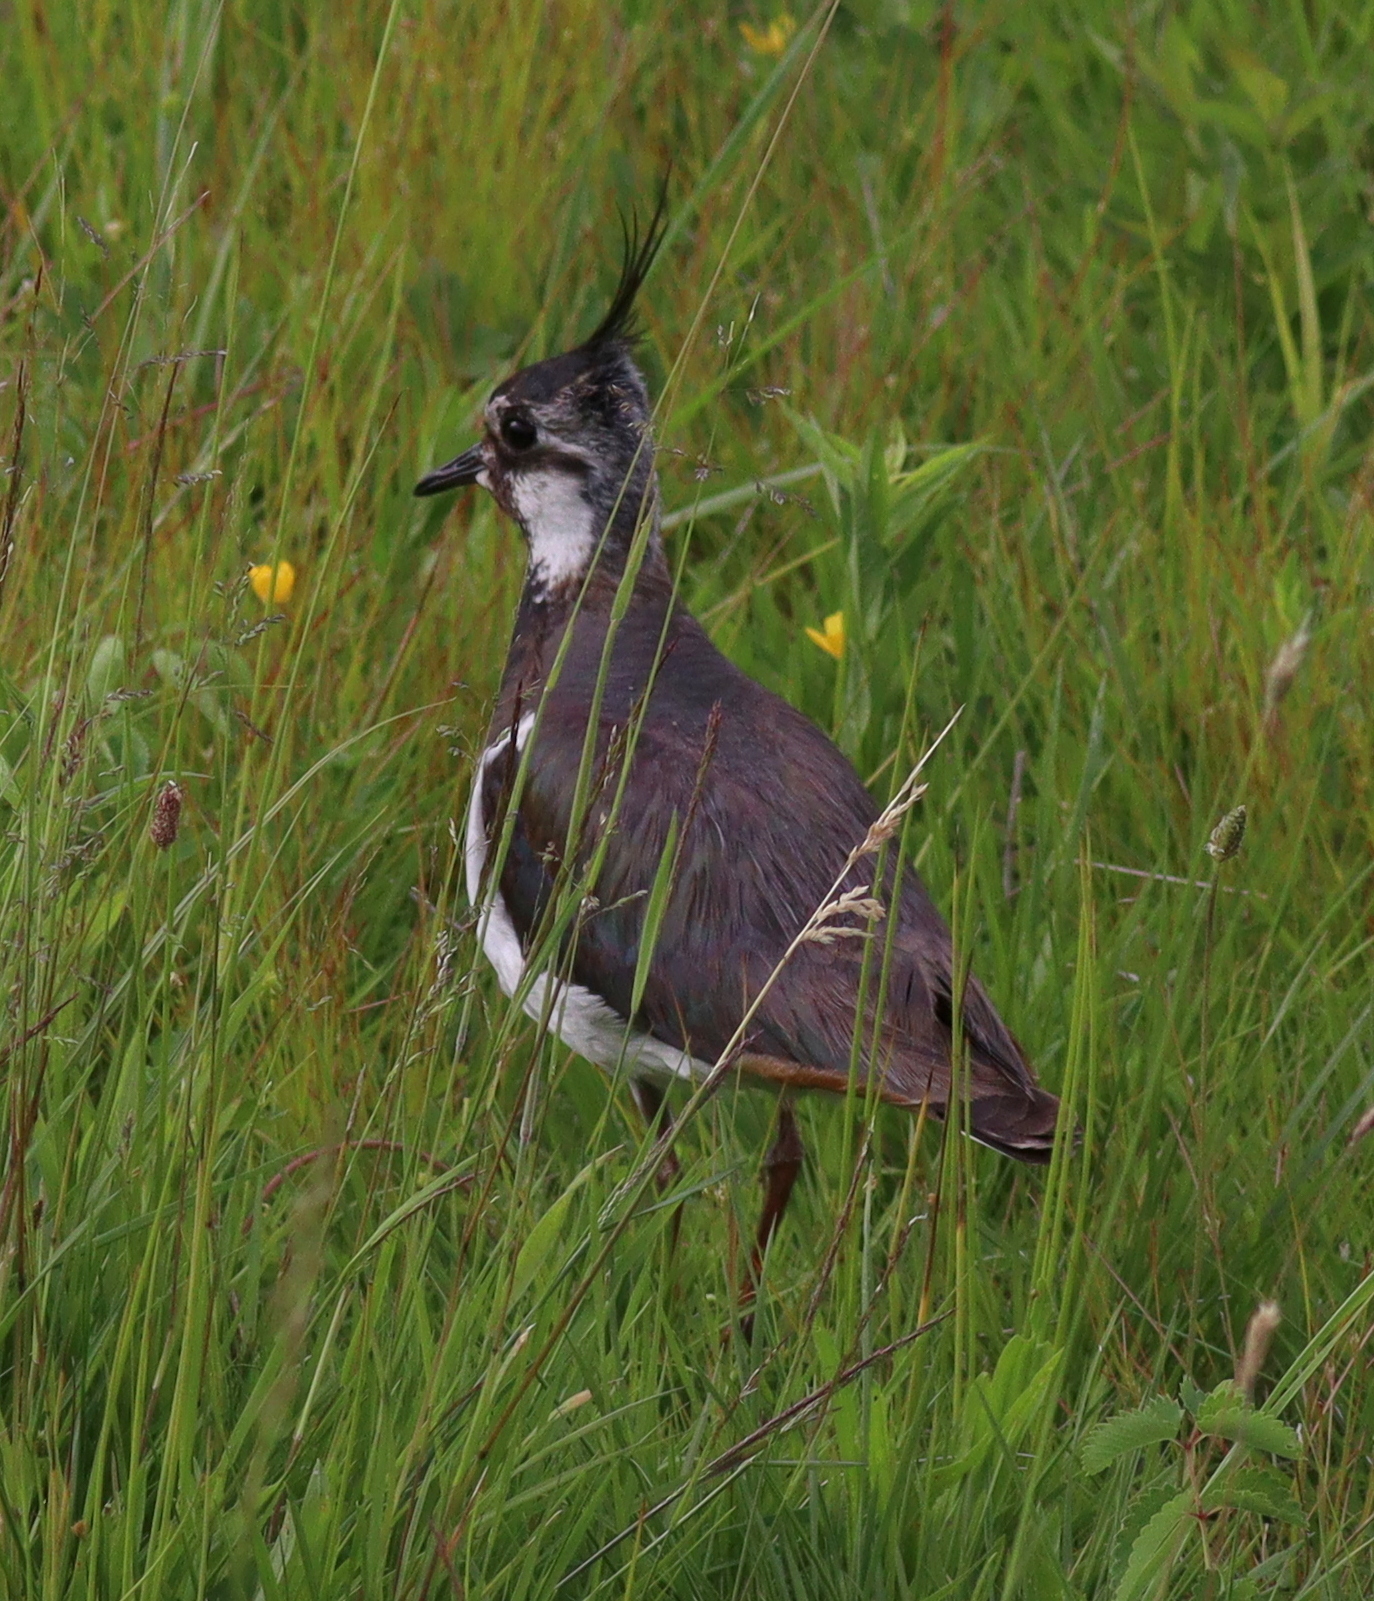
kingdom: Animalia
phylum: Chordata
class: Aves
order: Charadriiformes
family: Charadriidae
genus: Vanellus
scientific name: Vanellus vanellus
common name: Northern lapwing
